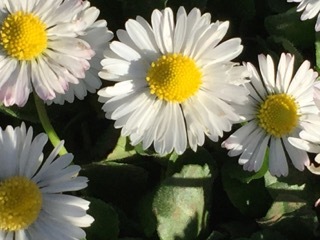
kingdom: Plantae
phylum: Tracheophyta
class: Magnoliopsida
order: Asterales
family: Asteraceae
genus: Bellis
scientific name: Bellis perennis
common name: Lawndaisy
